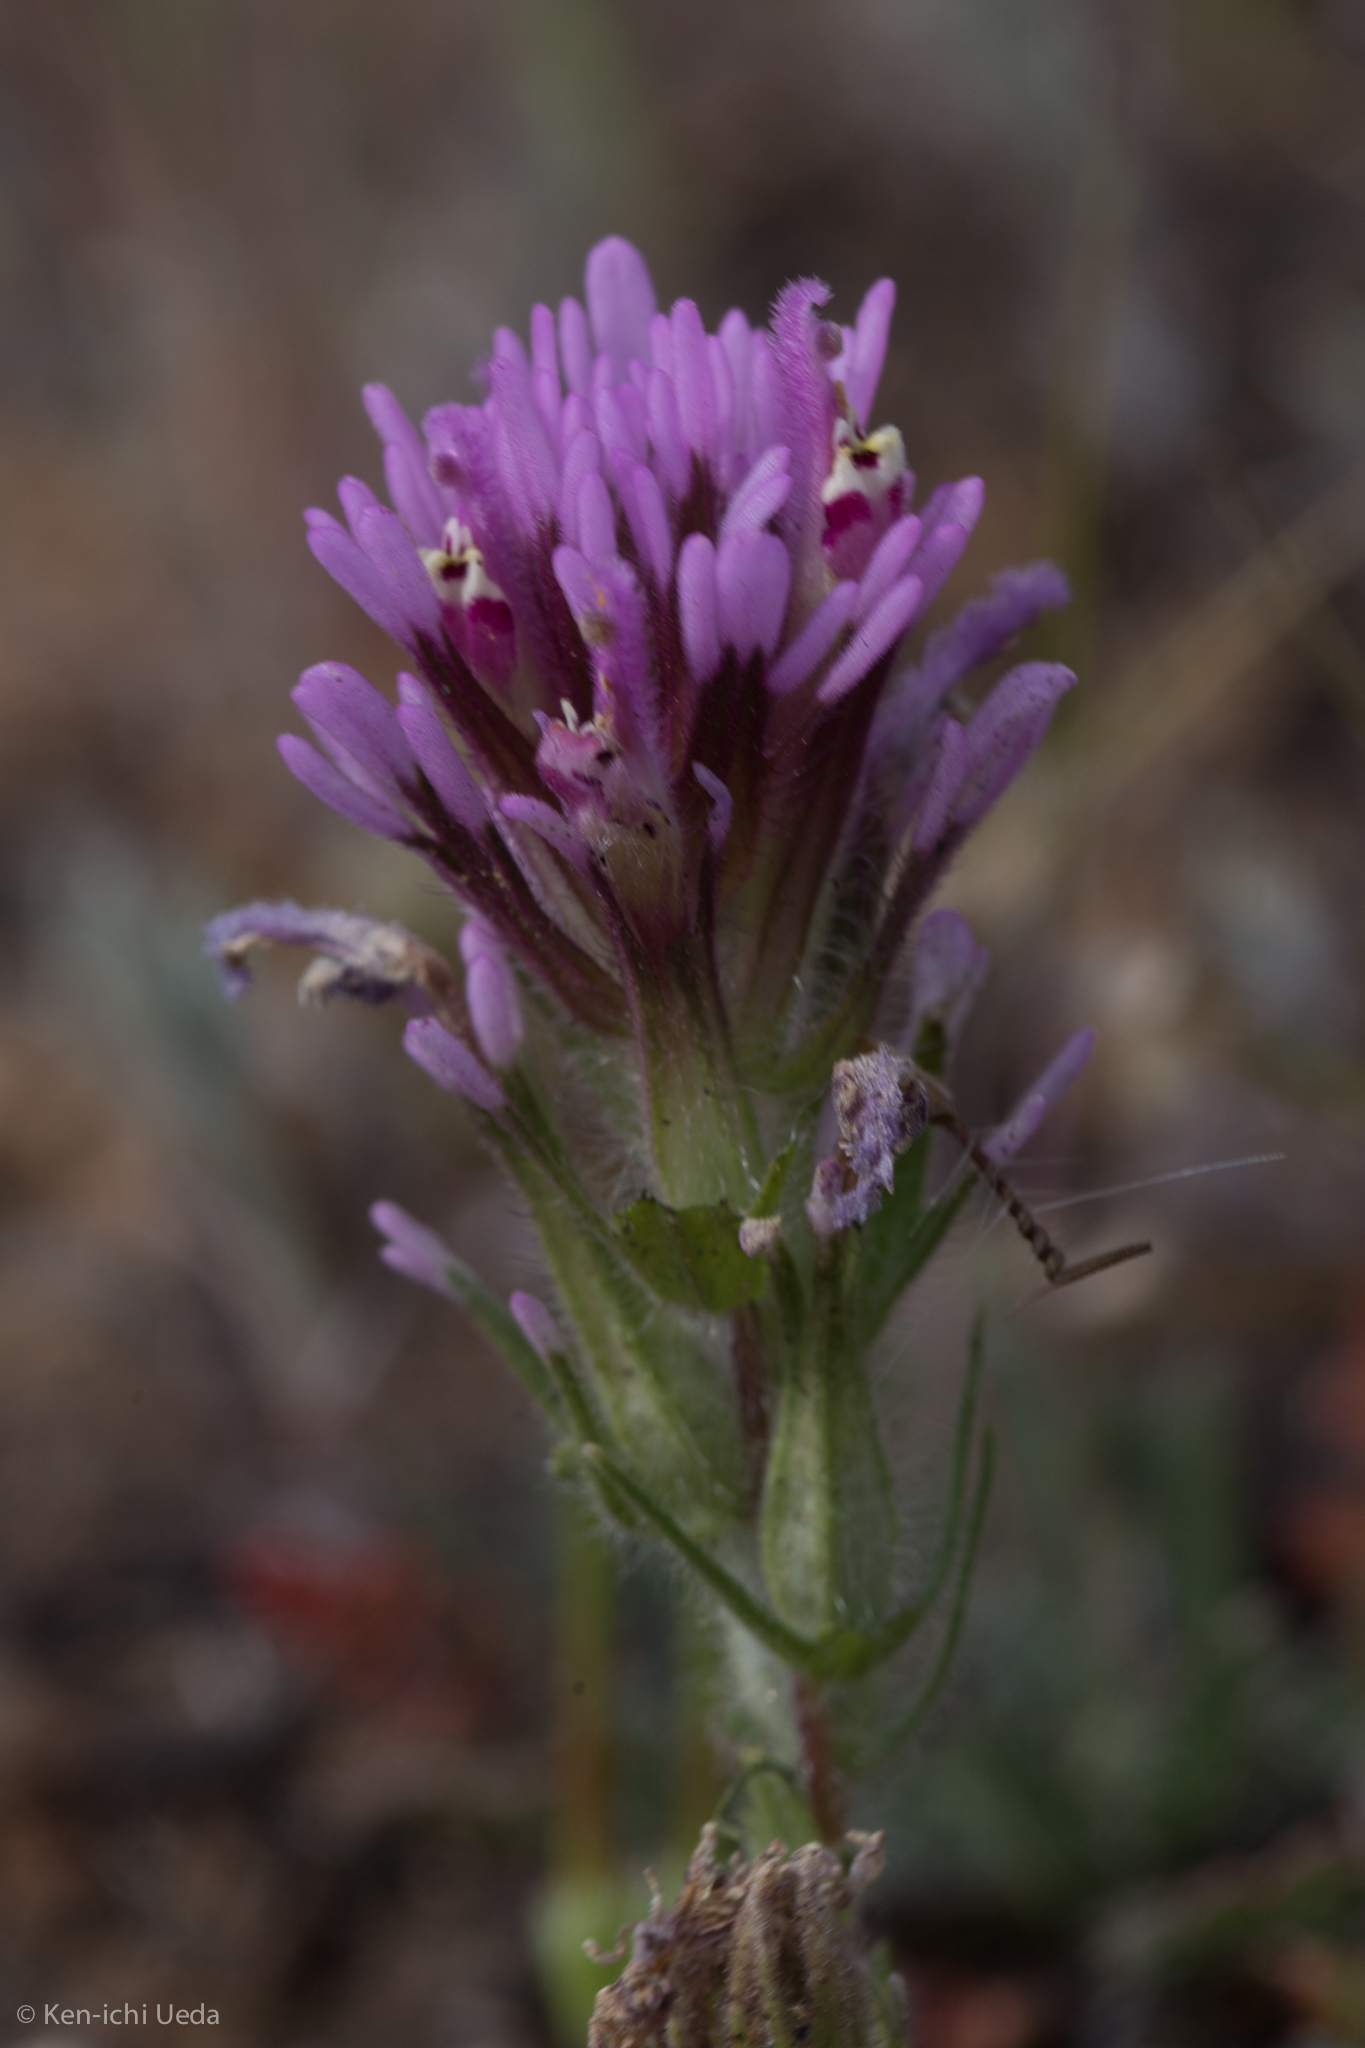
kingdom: Plantae
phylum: Tracheophyta
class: Magnoliopsida
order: Lamiales
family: Orobanchaceae
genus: Castilleja
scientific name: Castilleja exserta
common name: Purple owl-clover
